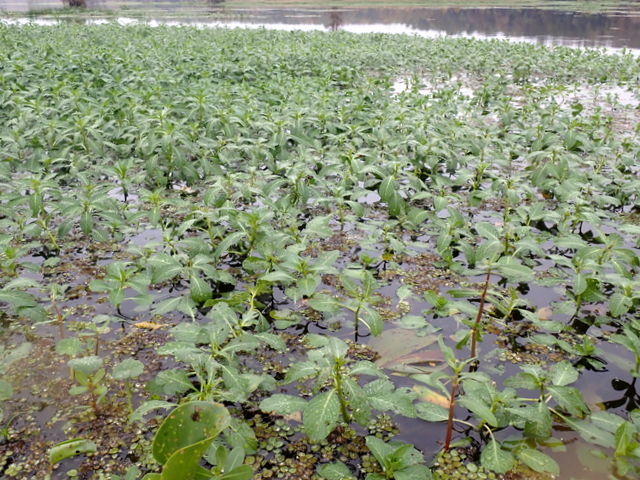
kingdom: Plantae
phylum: Tracheophyta
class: Magnoliopsida
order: Myrtales
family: Onagraceae
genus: Ludwigia
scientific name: Ludwigia peploides
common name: Floating primrose-willow
